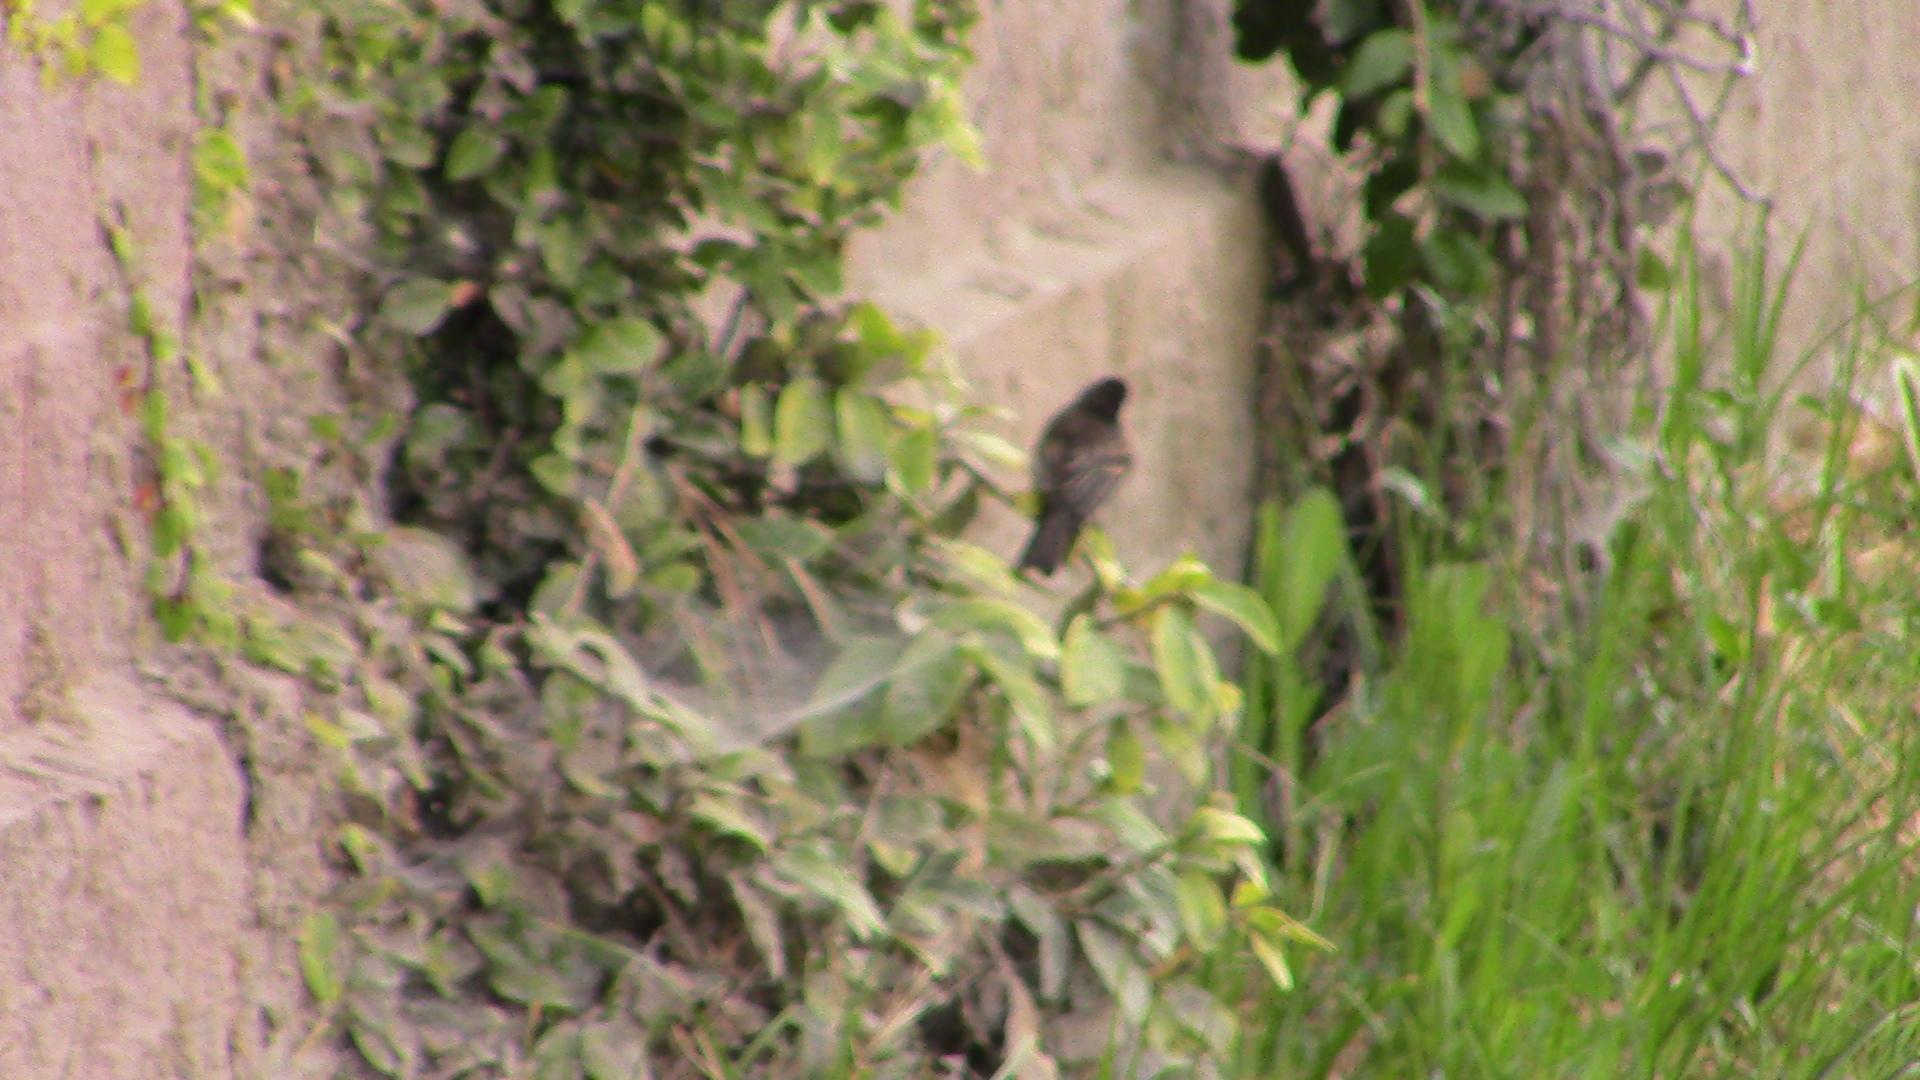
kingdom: Animalia
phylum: Chordata
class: Aves
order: Passeriformes
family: Tyrannidae
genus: Sayornis
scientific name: Sayornis nigricans
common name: Black phoebe
